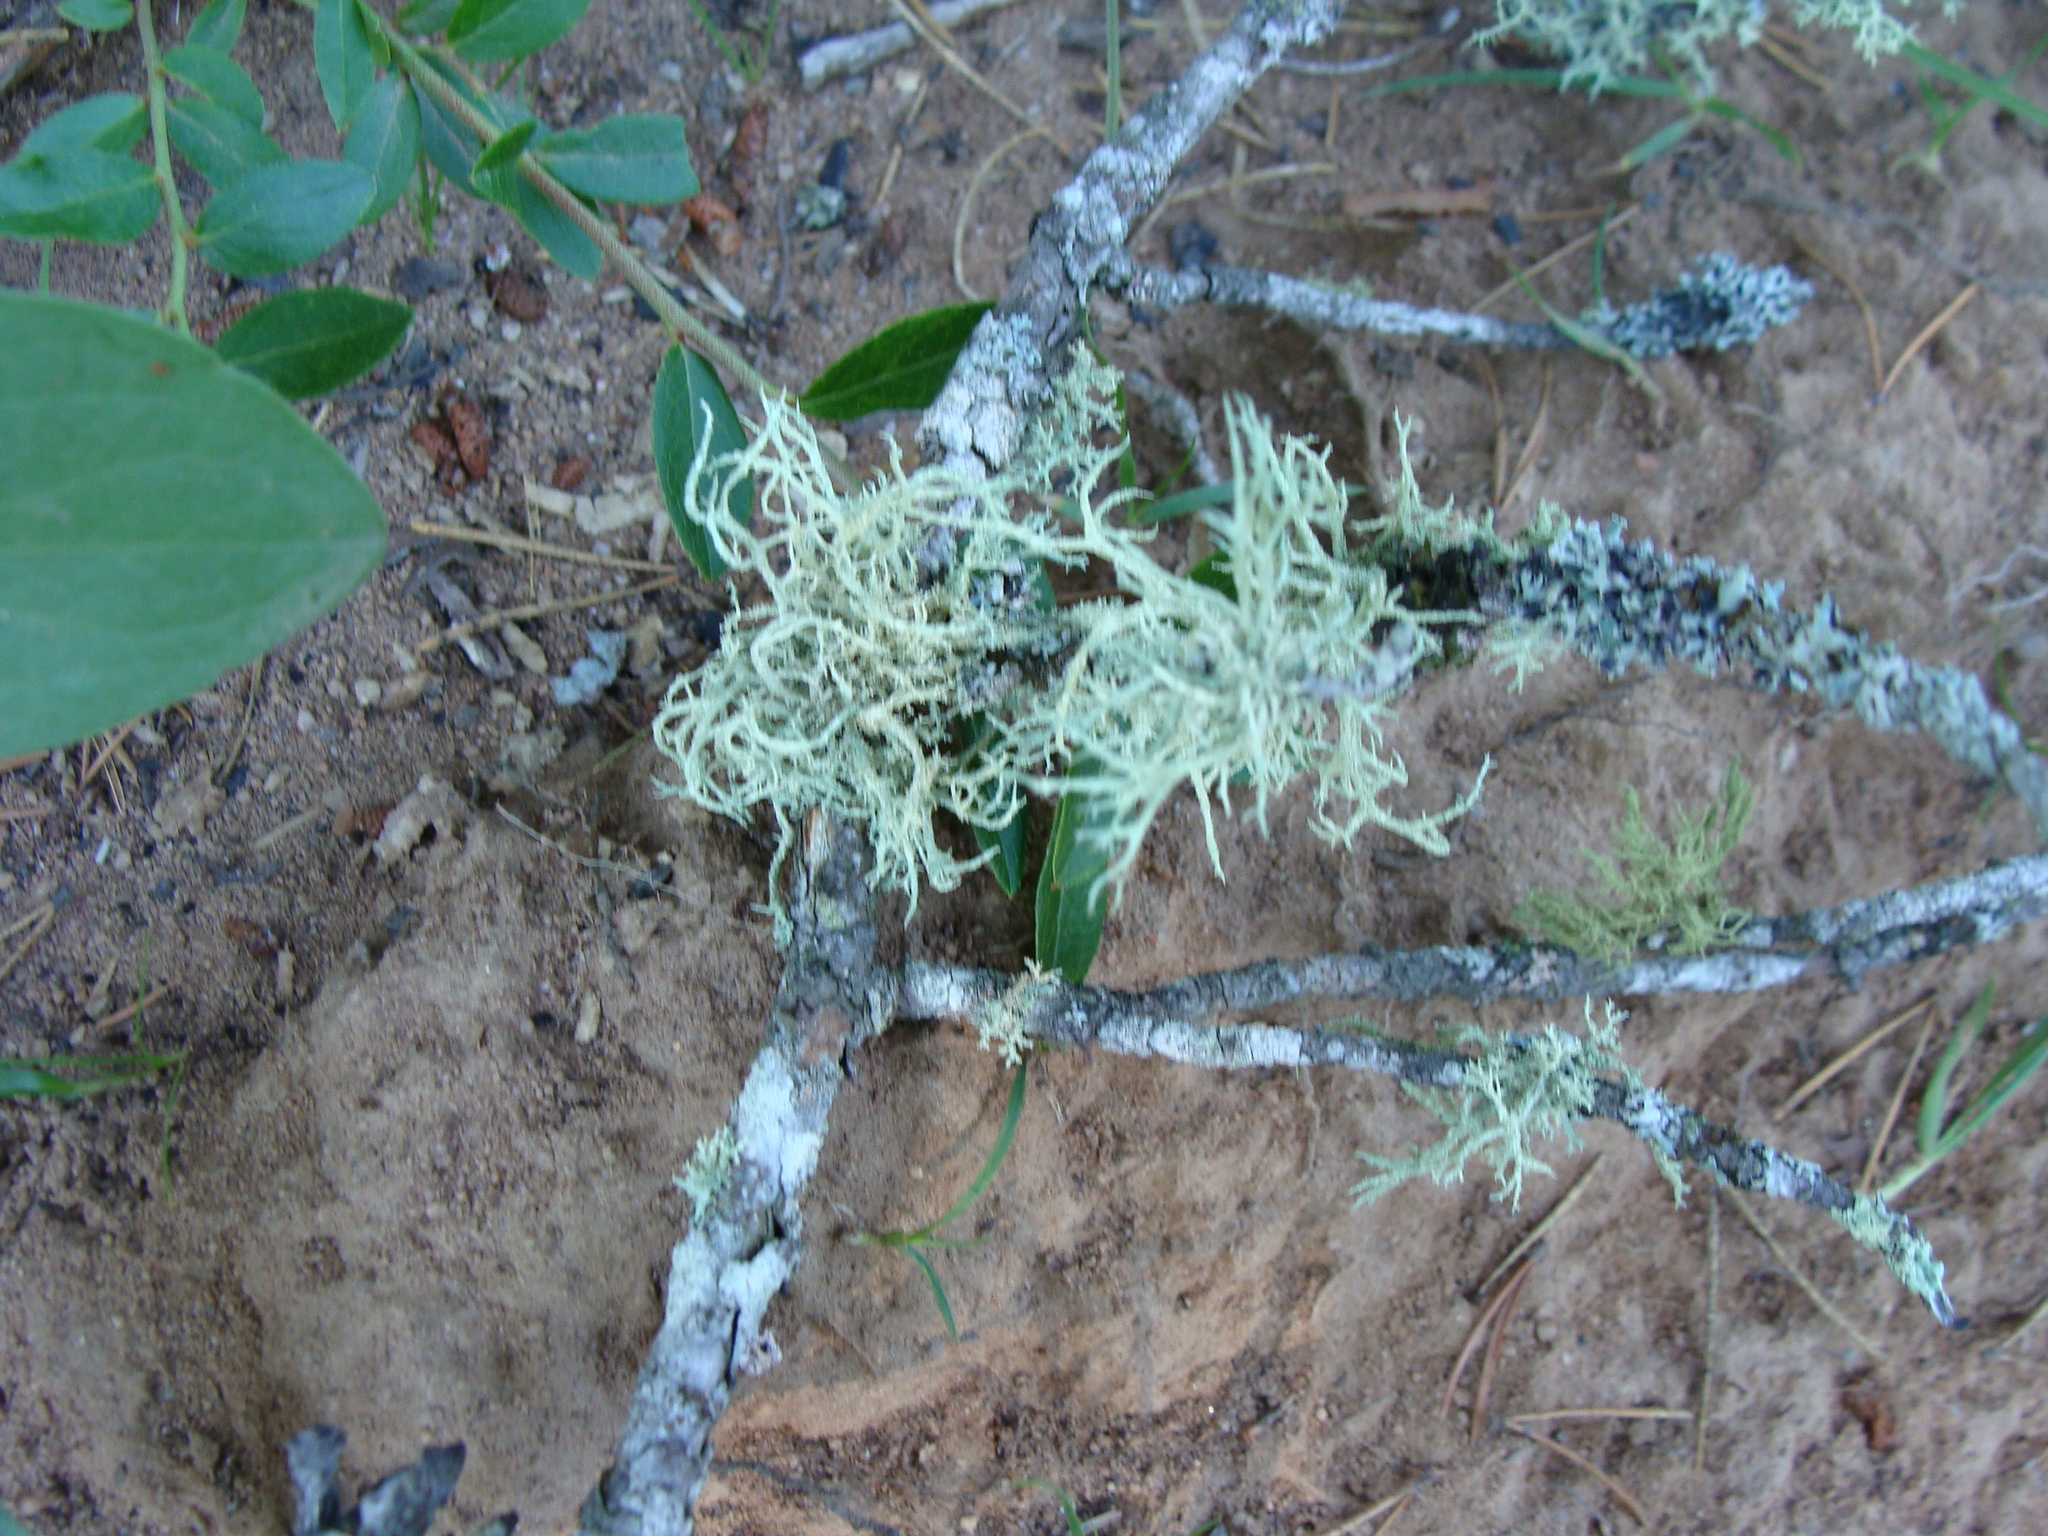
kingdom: Fungi
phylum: Ascomycota
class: Lecanoromycetes
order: Lecanorales
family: Parmeliaceae
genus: Evernia
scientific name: Evernia mesomorpha
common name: Boreal oak moss lichen
